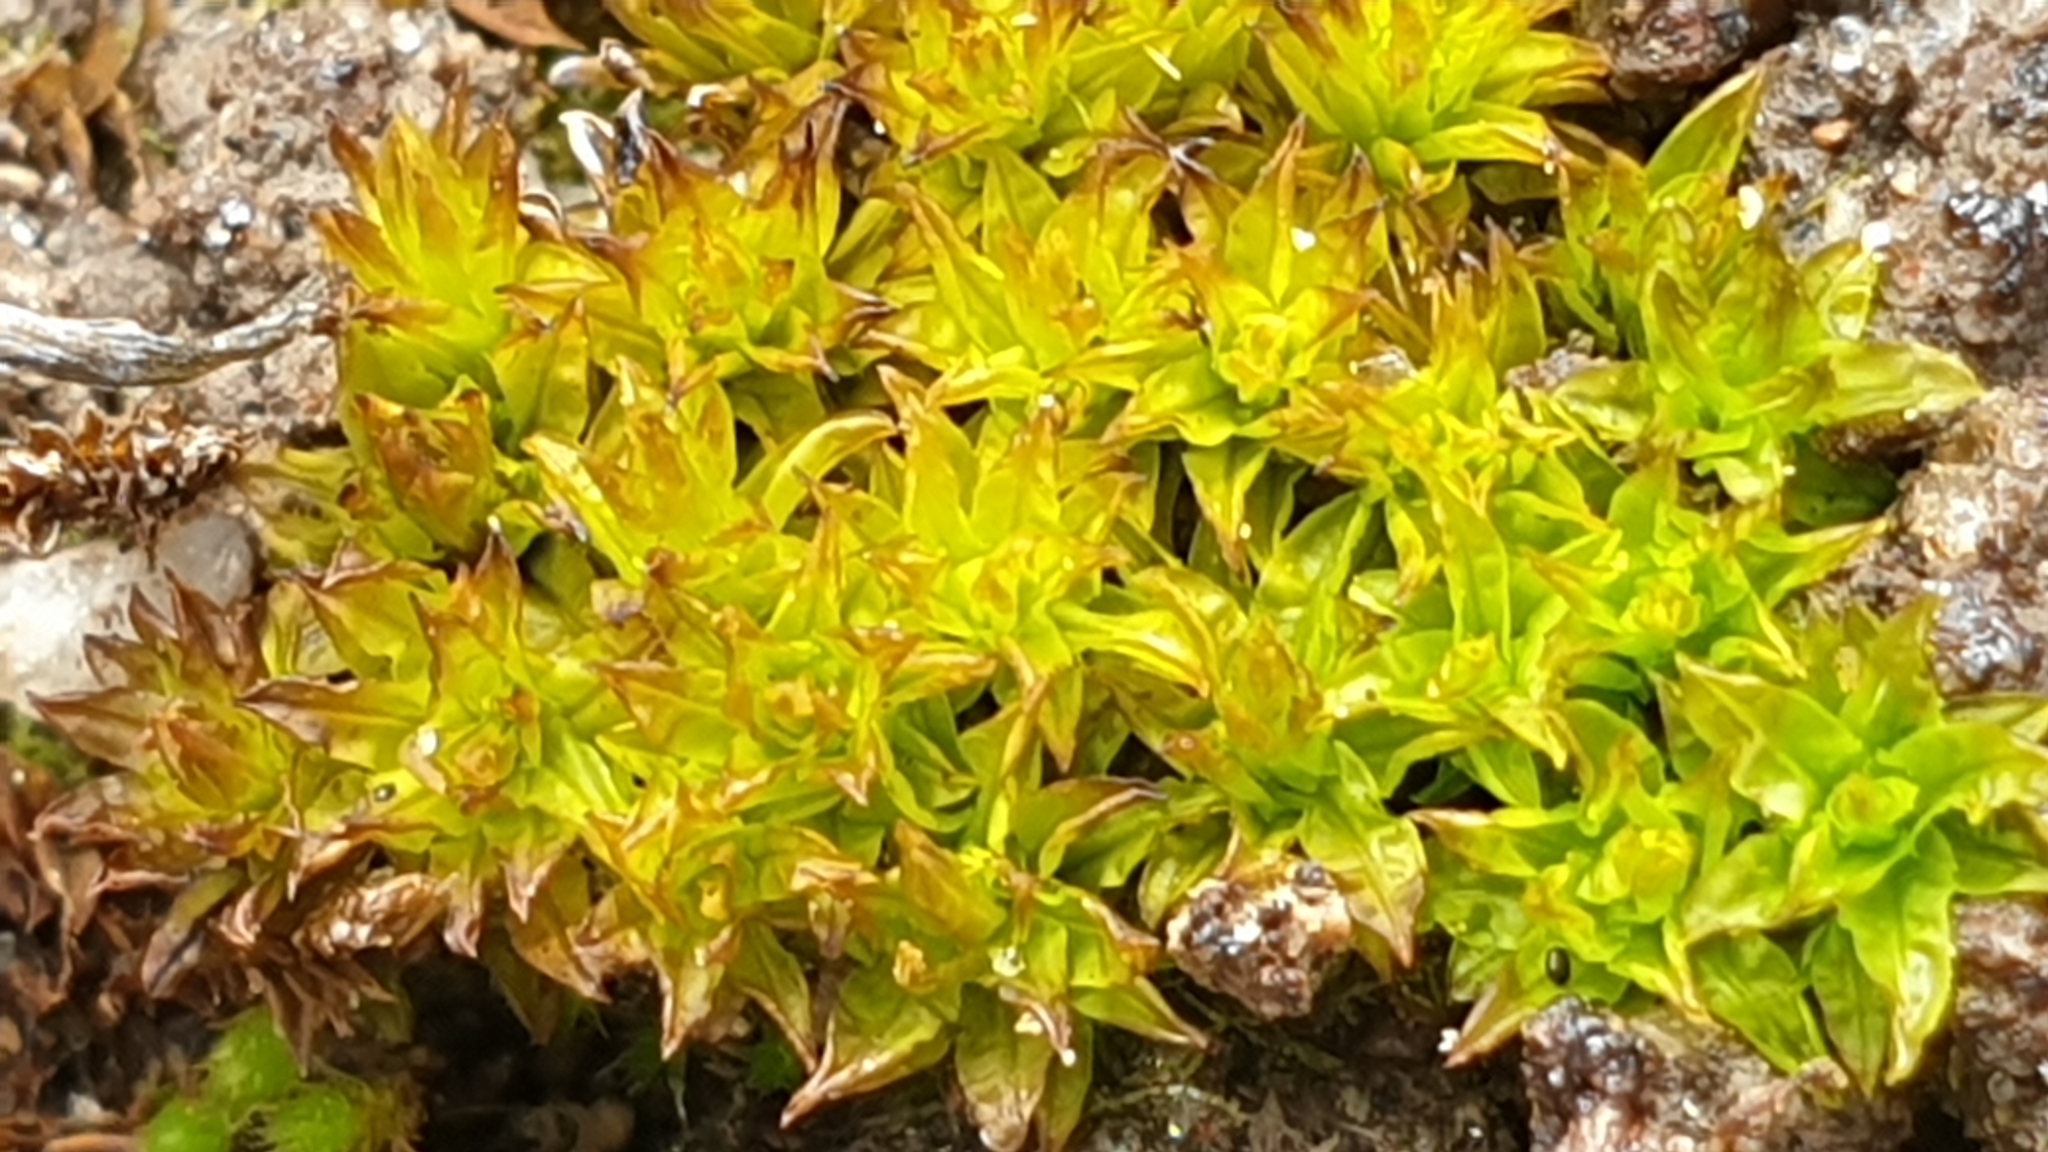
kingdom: Plantae
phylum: Bryophyta
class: Bryopsida
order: Pottiales
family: Pottiaceae
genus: Barbula
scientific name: Barbula calycina
